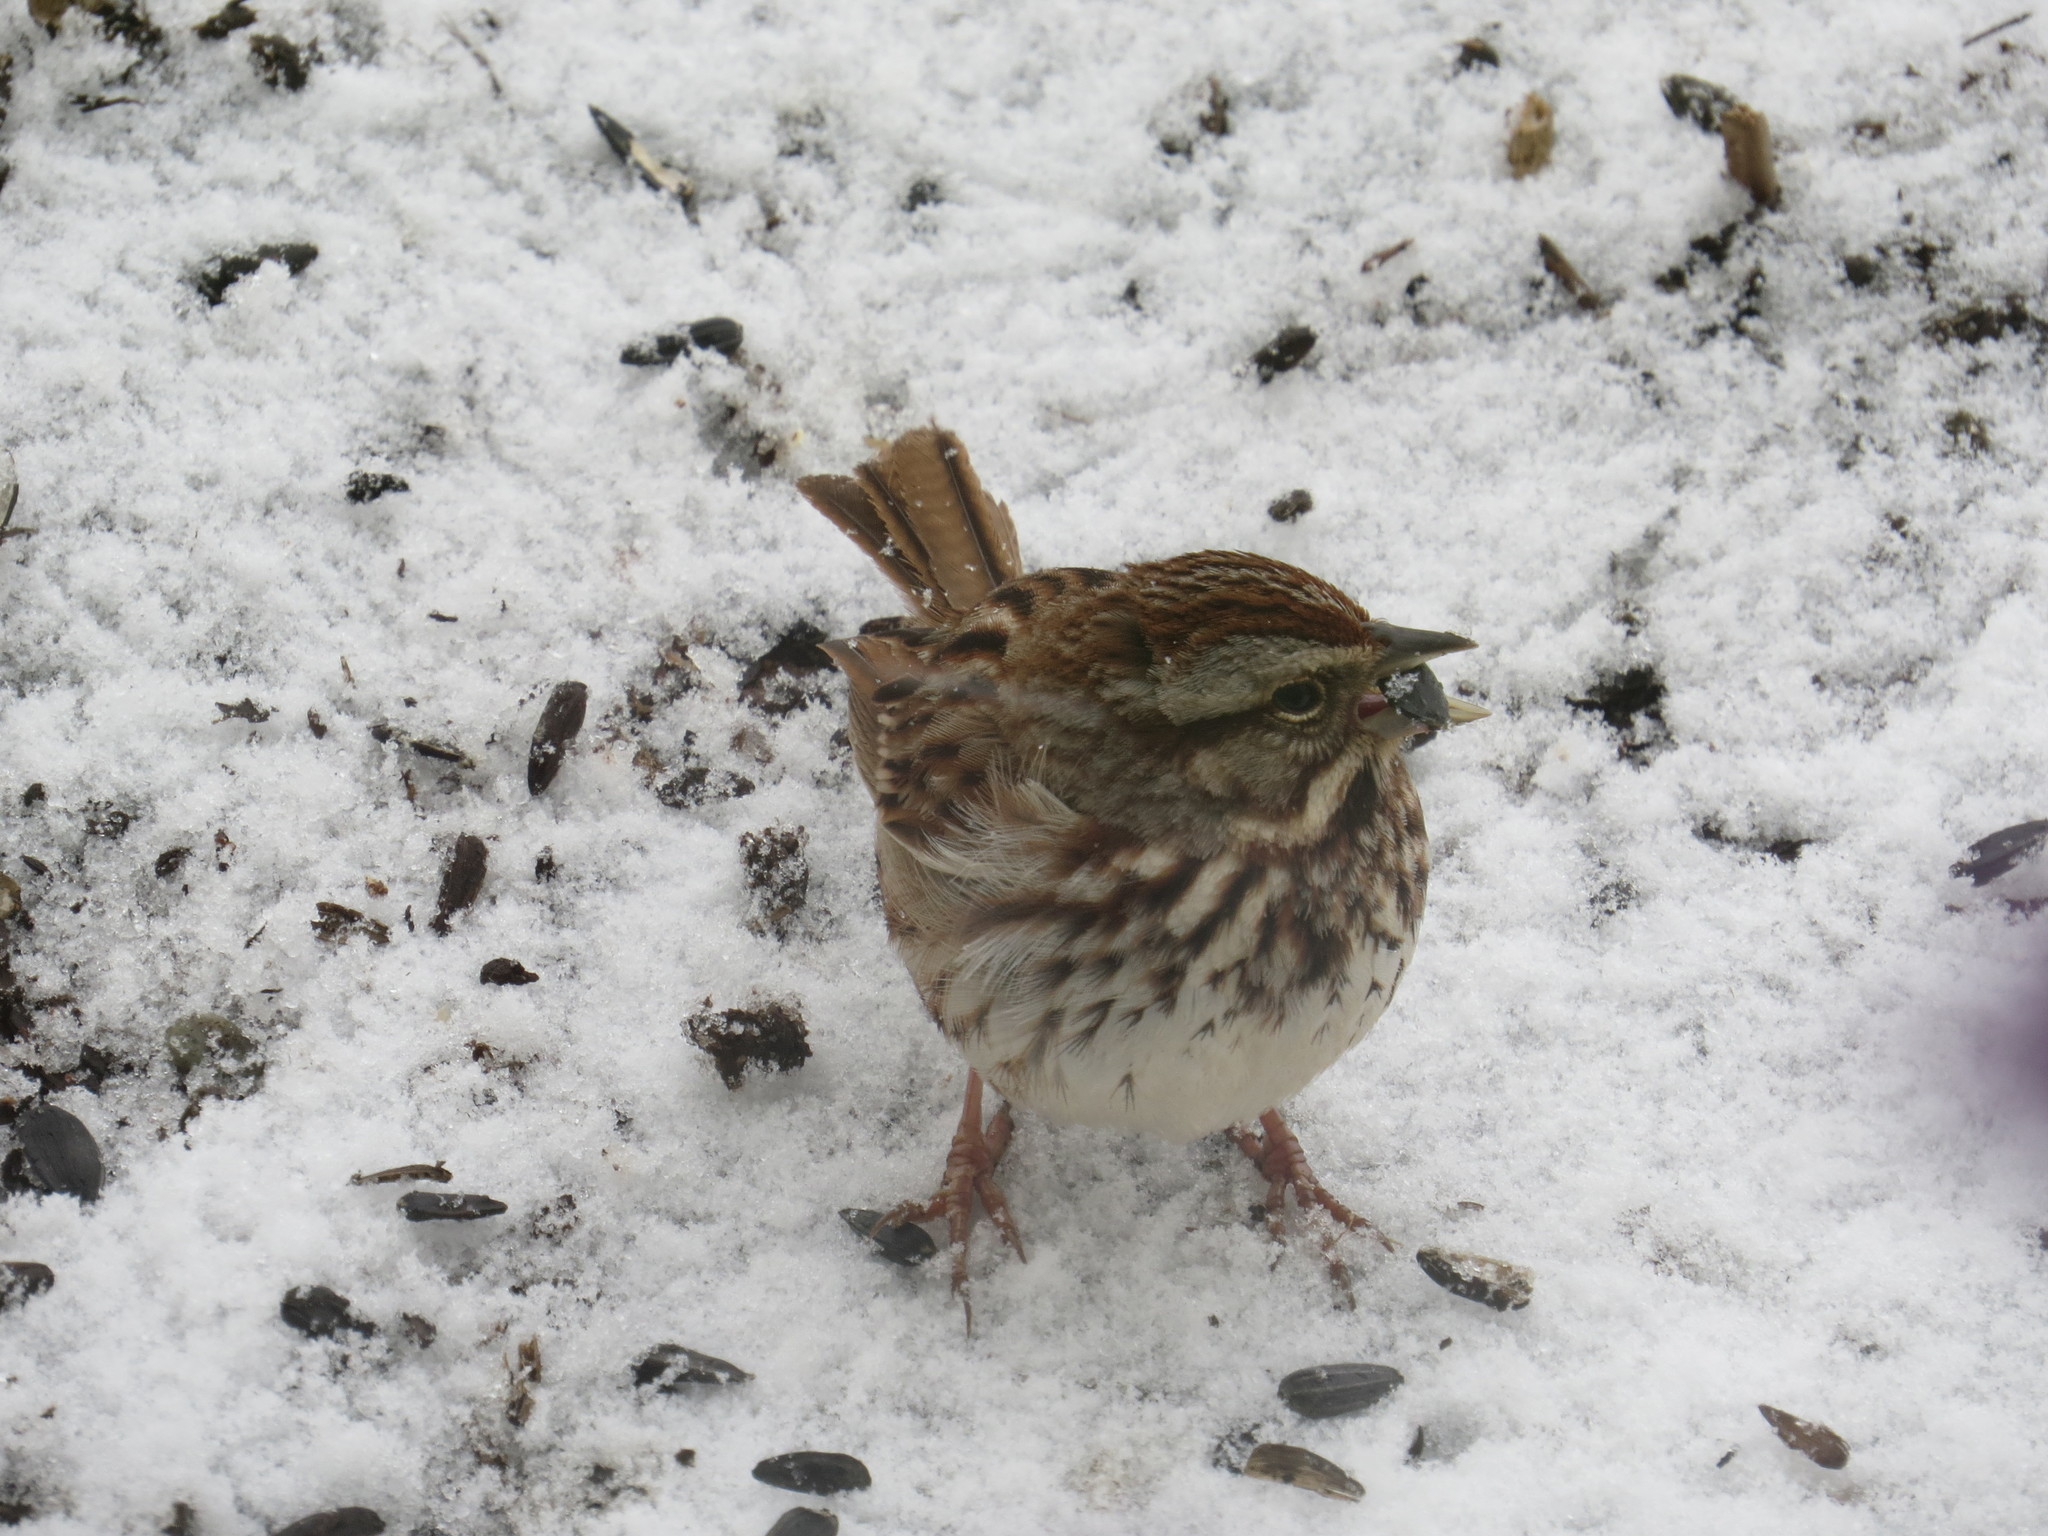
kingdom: Animalia
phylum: Chordata
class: Aves
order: Passeriformes
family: Passerellidae
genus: Melospiza
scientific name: Melospiza melodia
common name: Song sparrow
